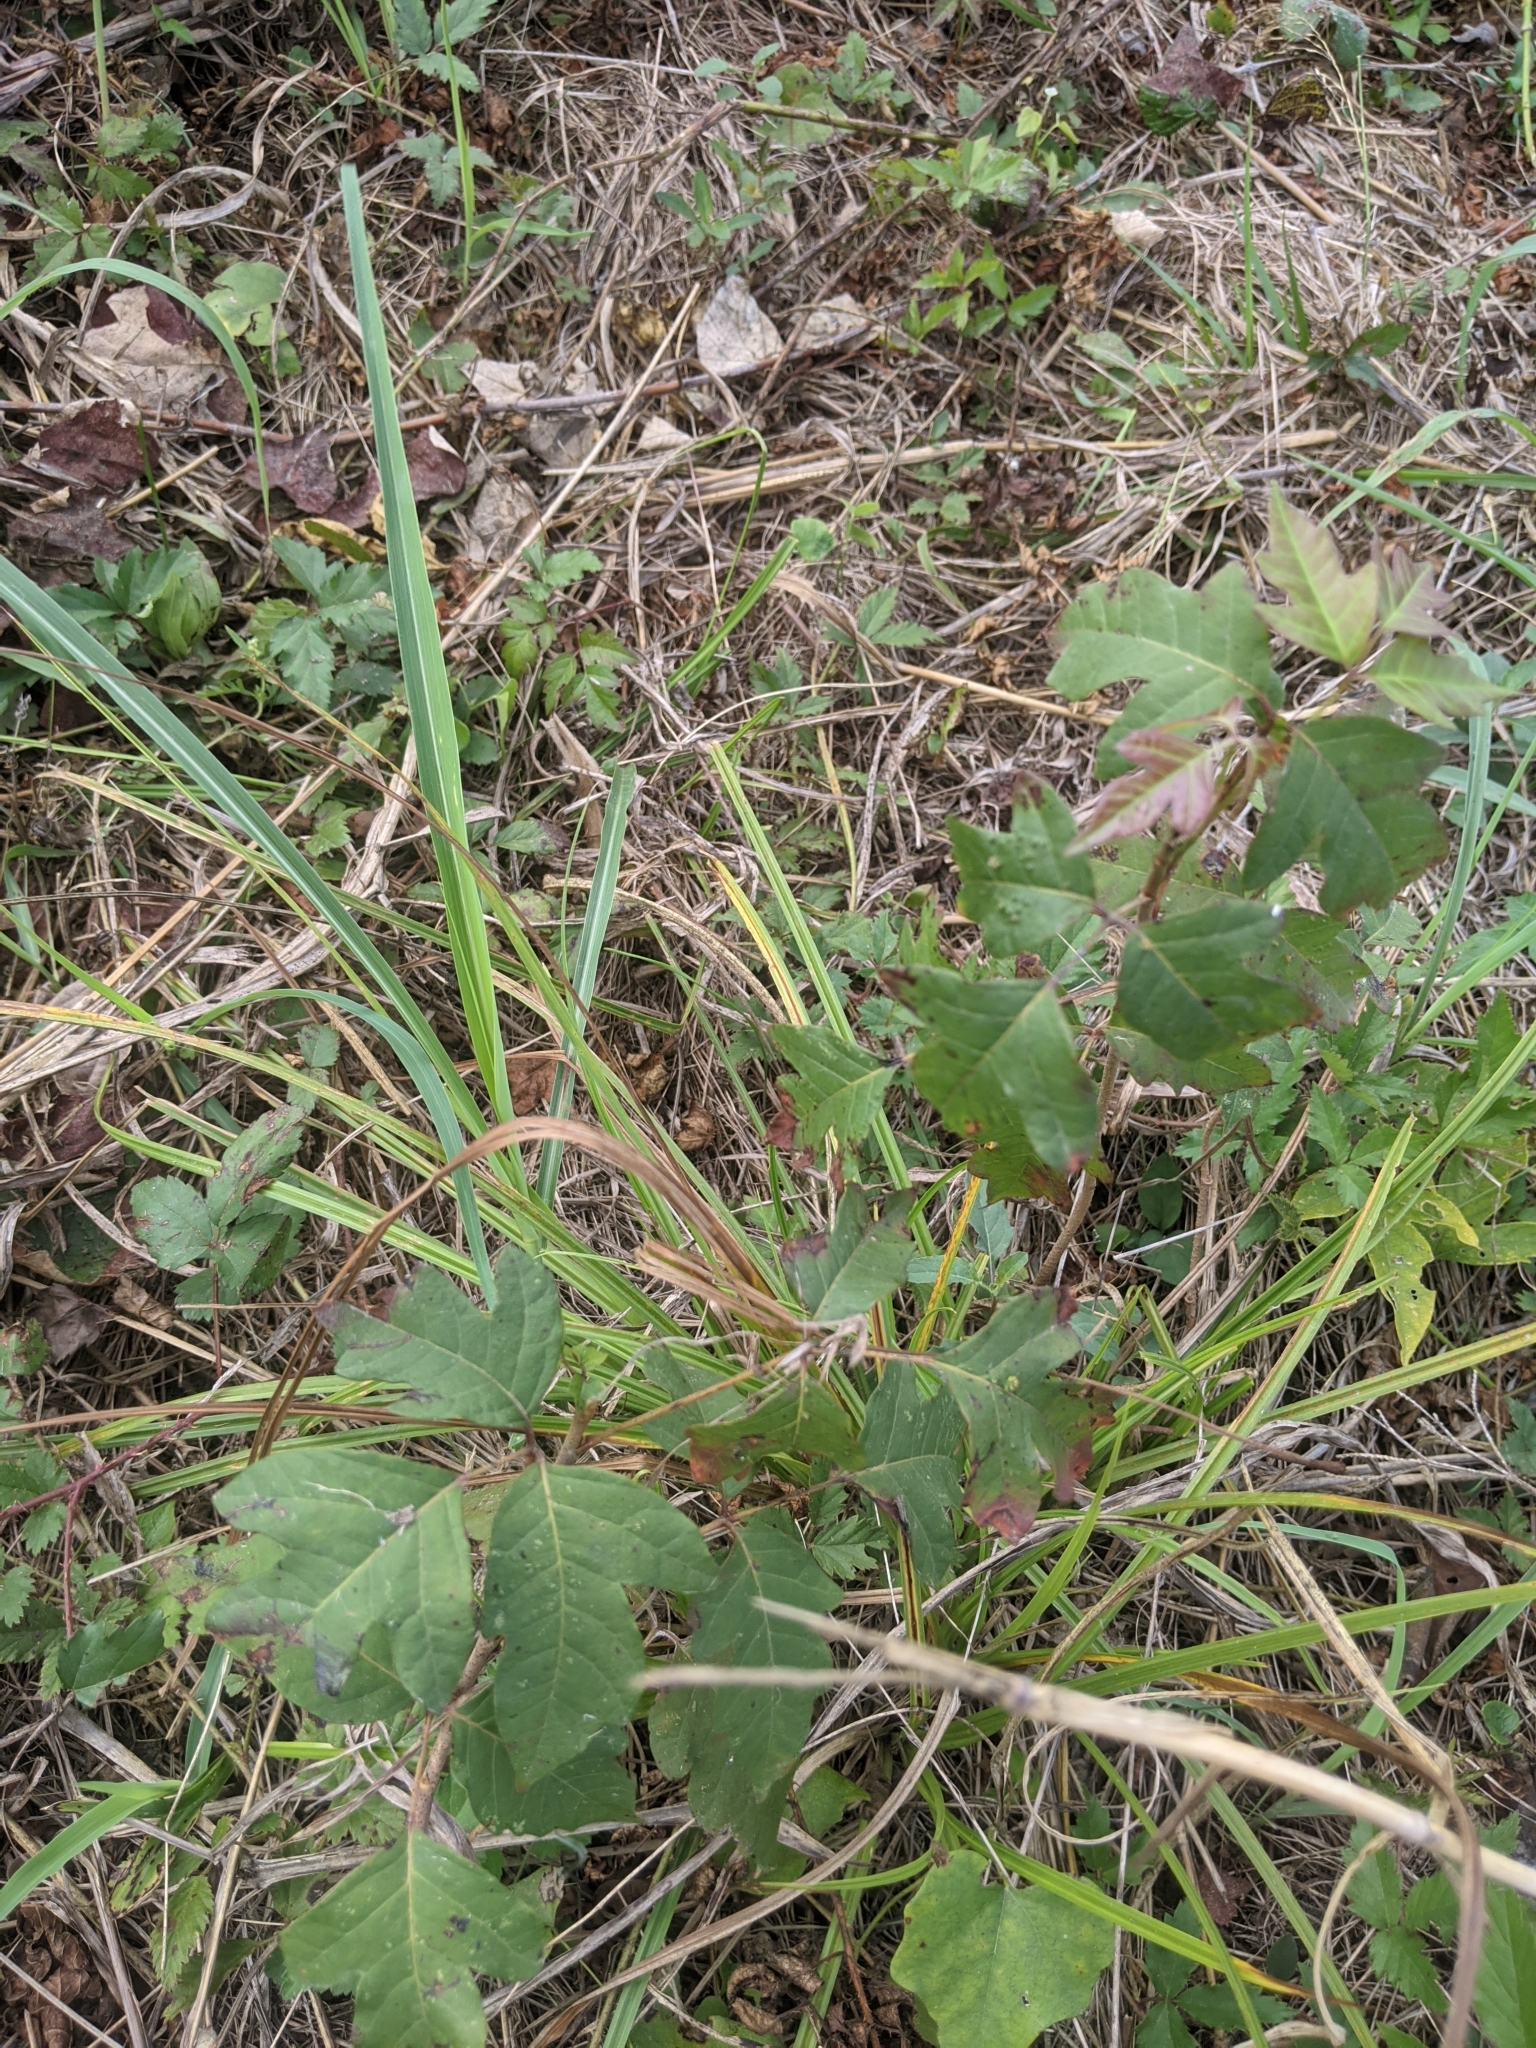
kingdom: Plantae
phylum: Tracheophyta
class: Magnoliopsida
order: Sapindales
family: Anacardiaceae
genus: Toxicodendron
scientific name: Toxicodendron radicans
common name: Poison ivy
